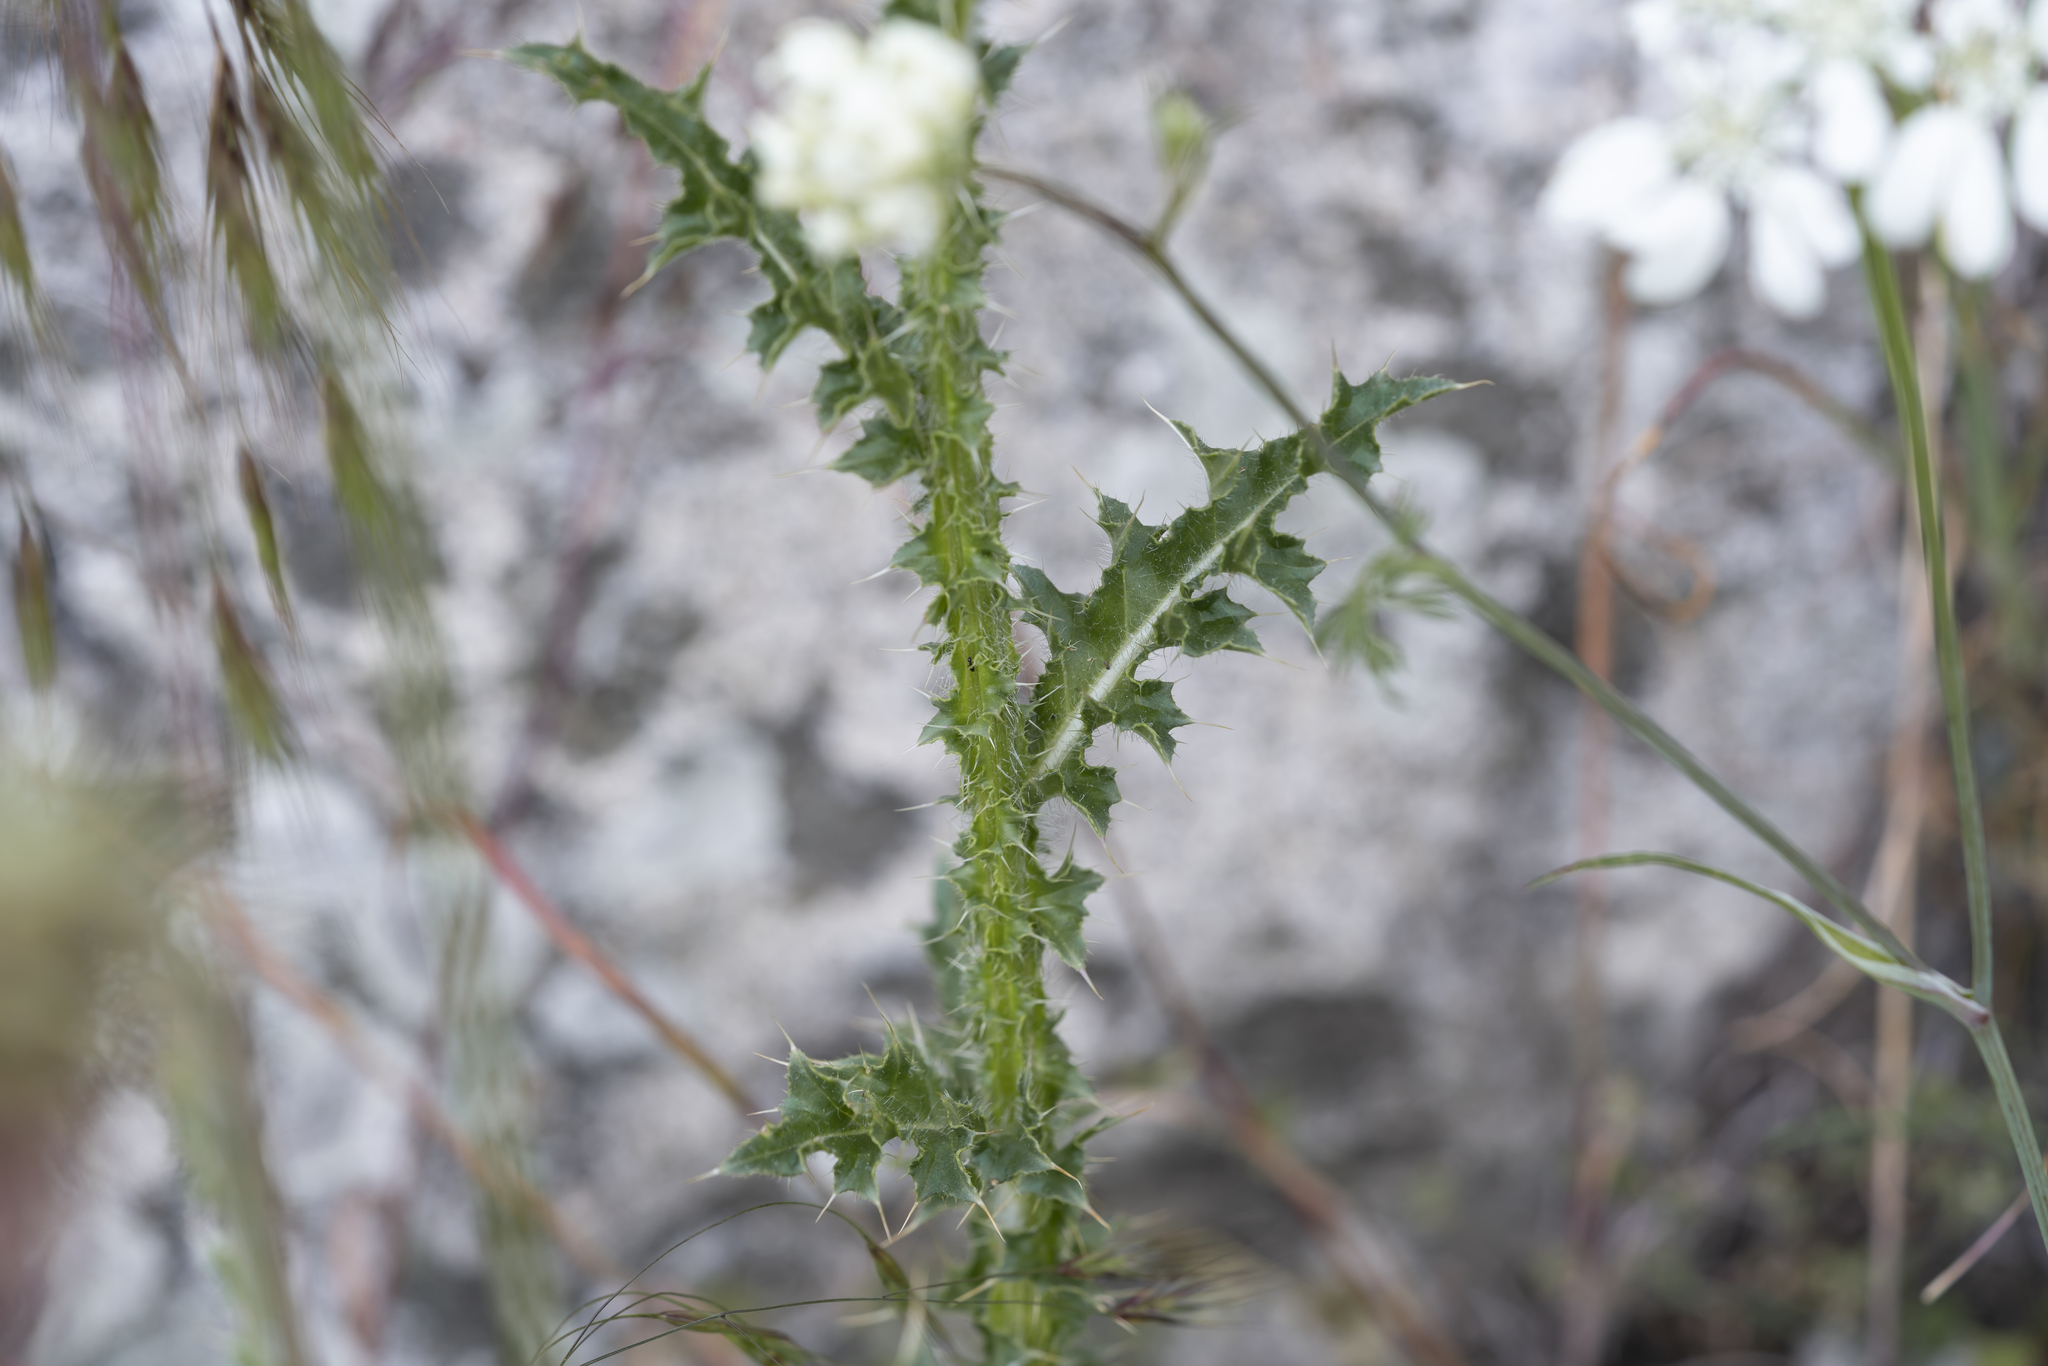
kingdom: Plantae
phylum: Tracheophyta
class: Magnoliopsida
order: Asterales
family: Asteraceae
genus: Carduus
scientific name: Carduus nutans
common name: Musk thistle
